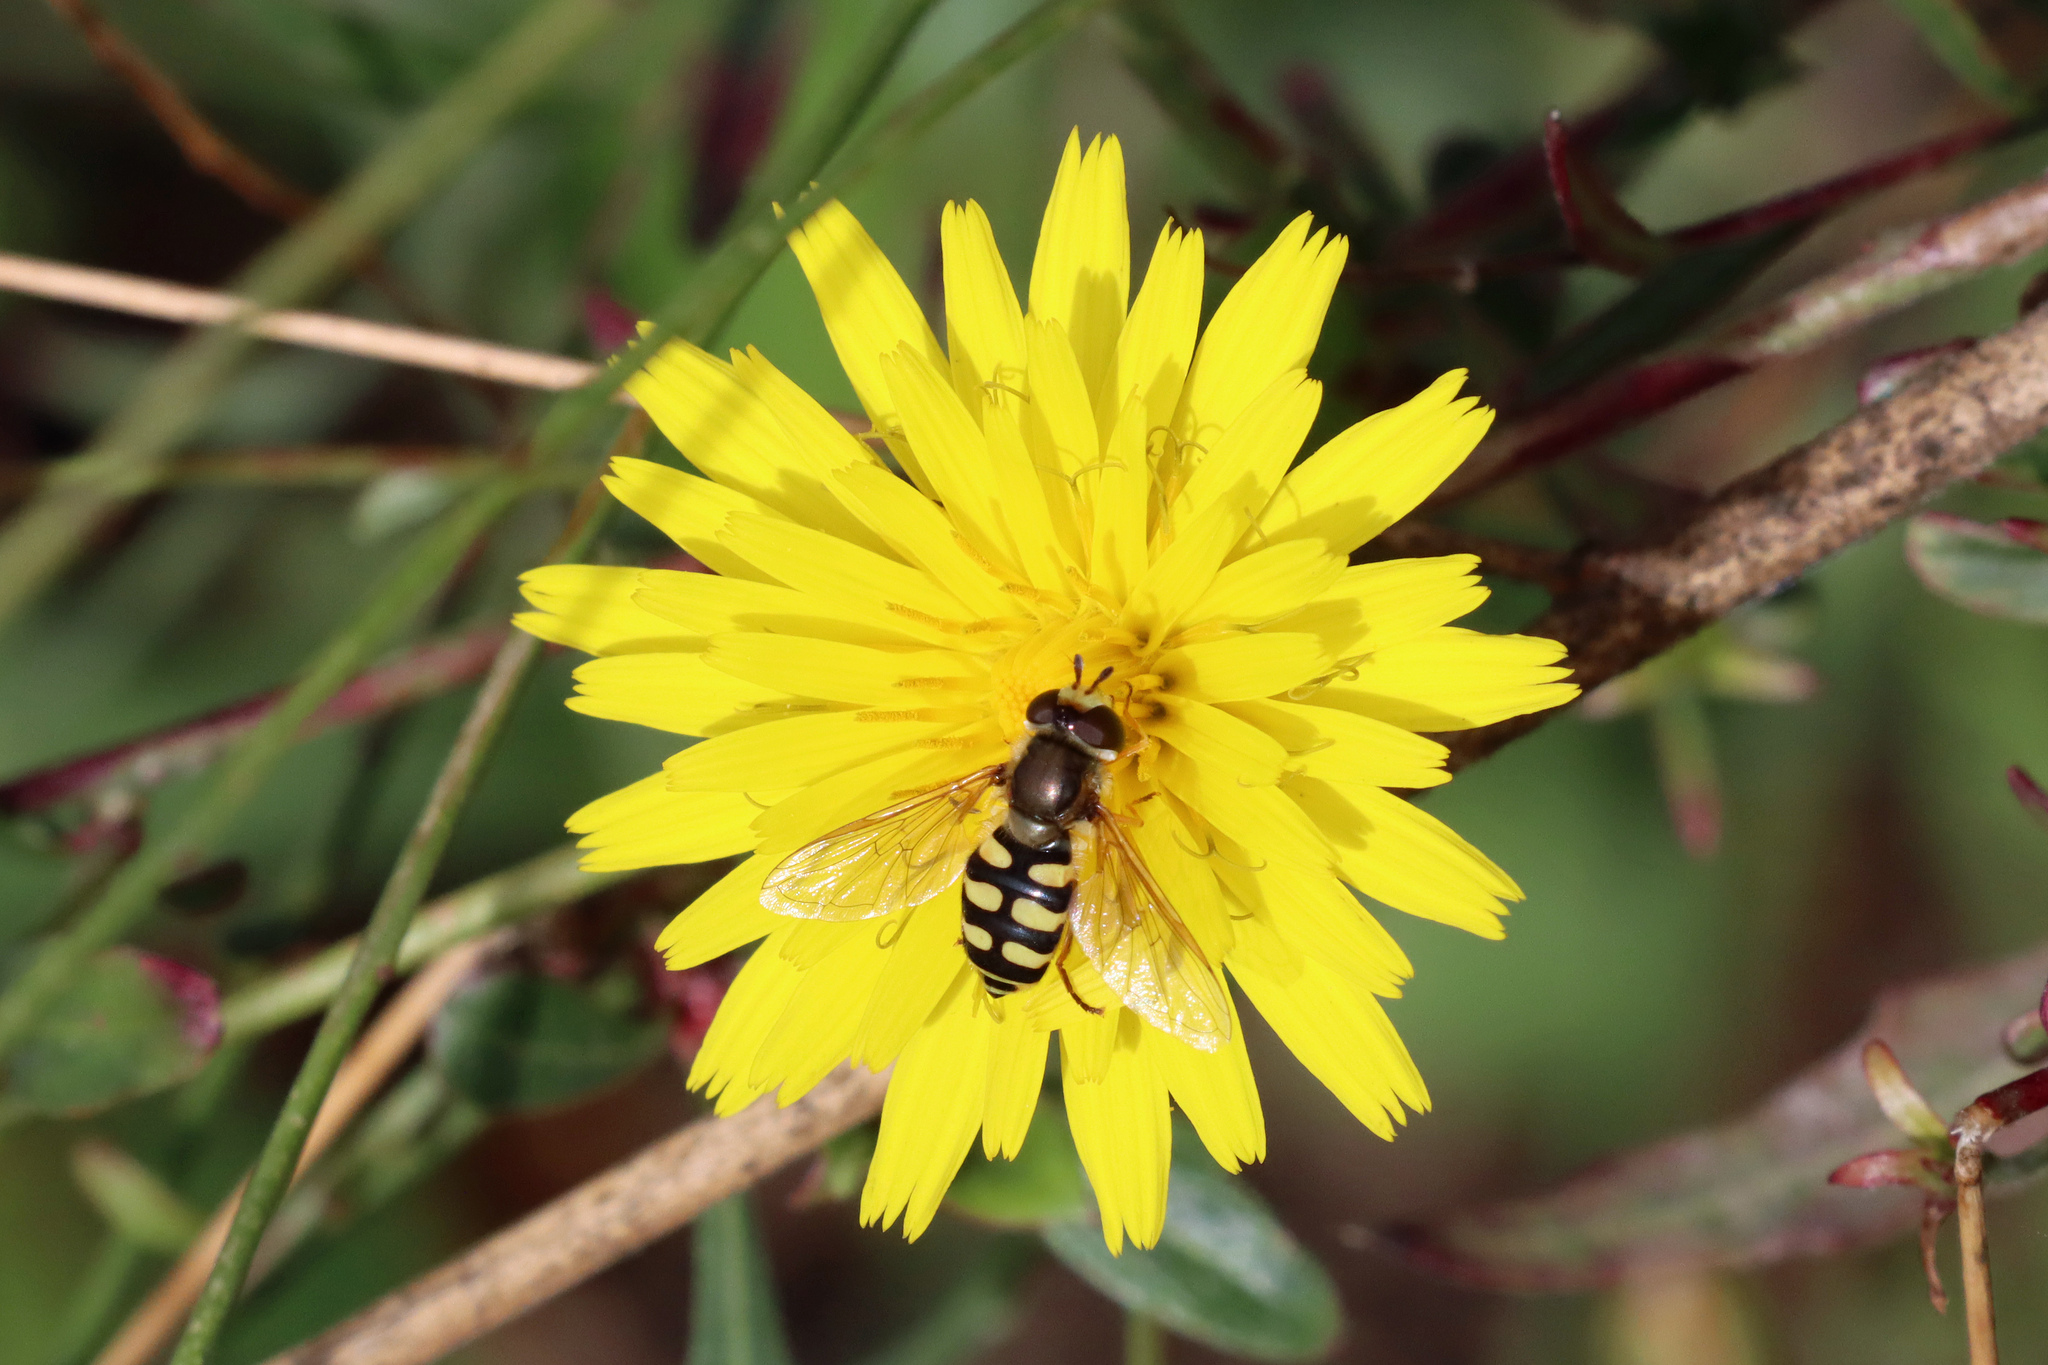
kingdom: Animalia
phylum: Arthropoda
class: Insecta
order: Diptera
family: Syrphidae
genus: Eupeodes
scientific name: Eupeodes corollae
